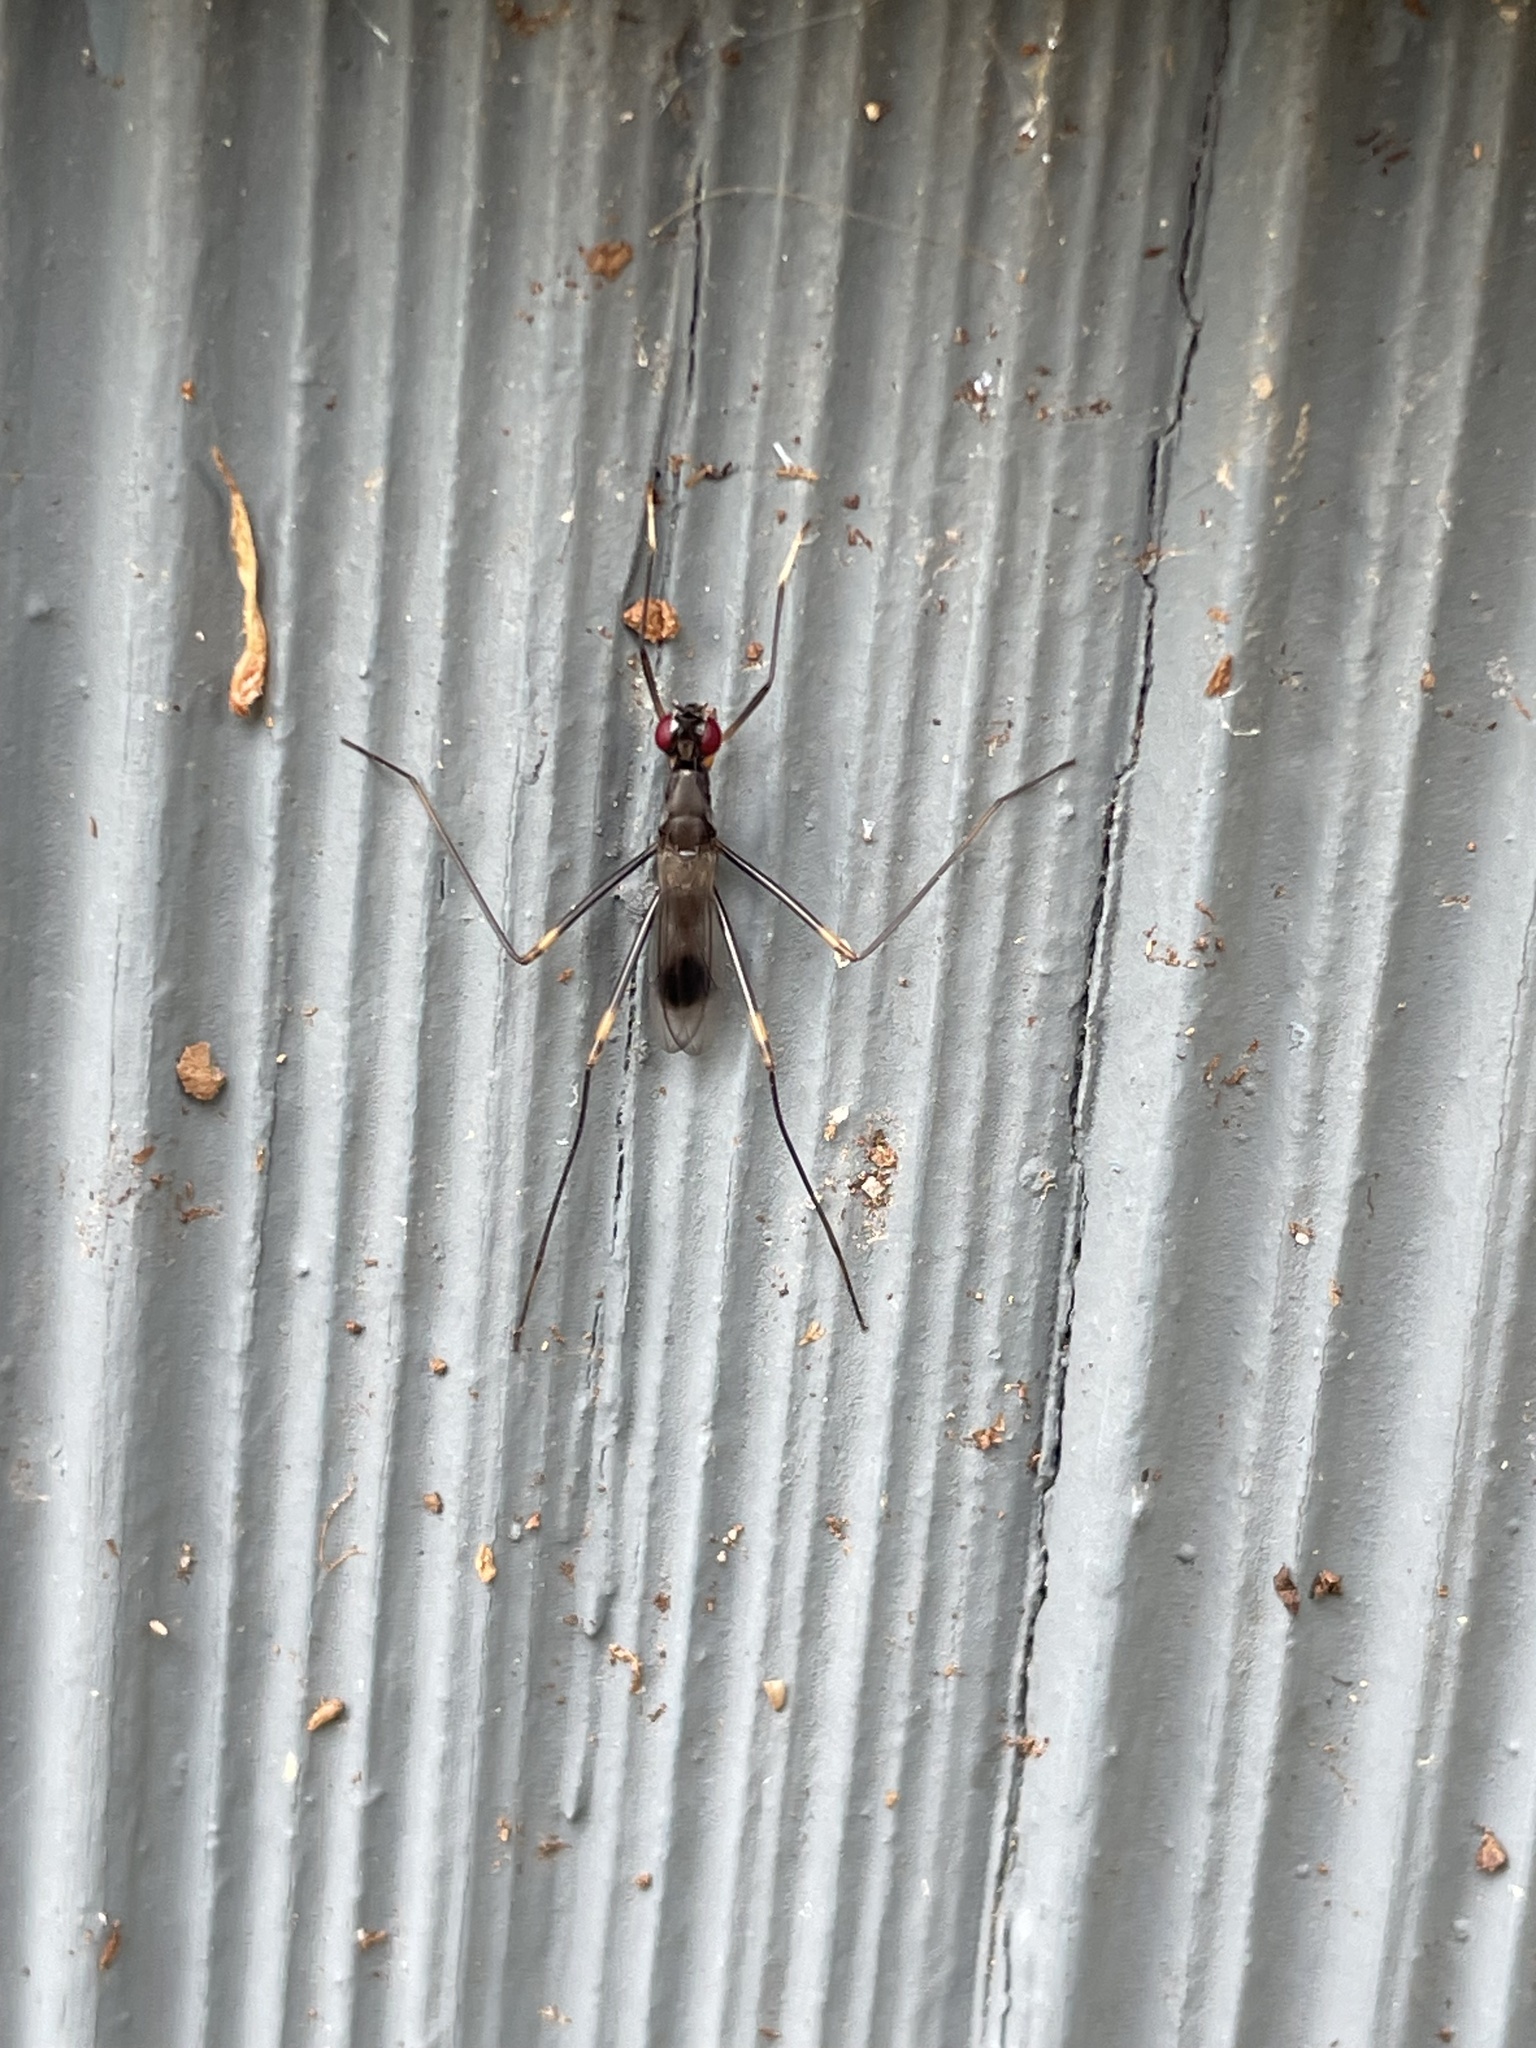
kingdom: Animalia
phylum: Arthropoda
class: Insecta
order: Diptera
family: Micropezidae
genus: Rainieria
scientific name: Rainieria antennaepes
